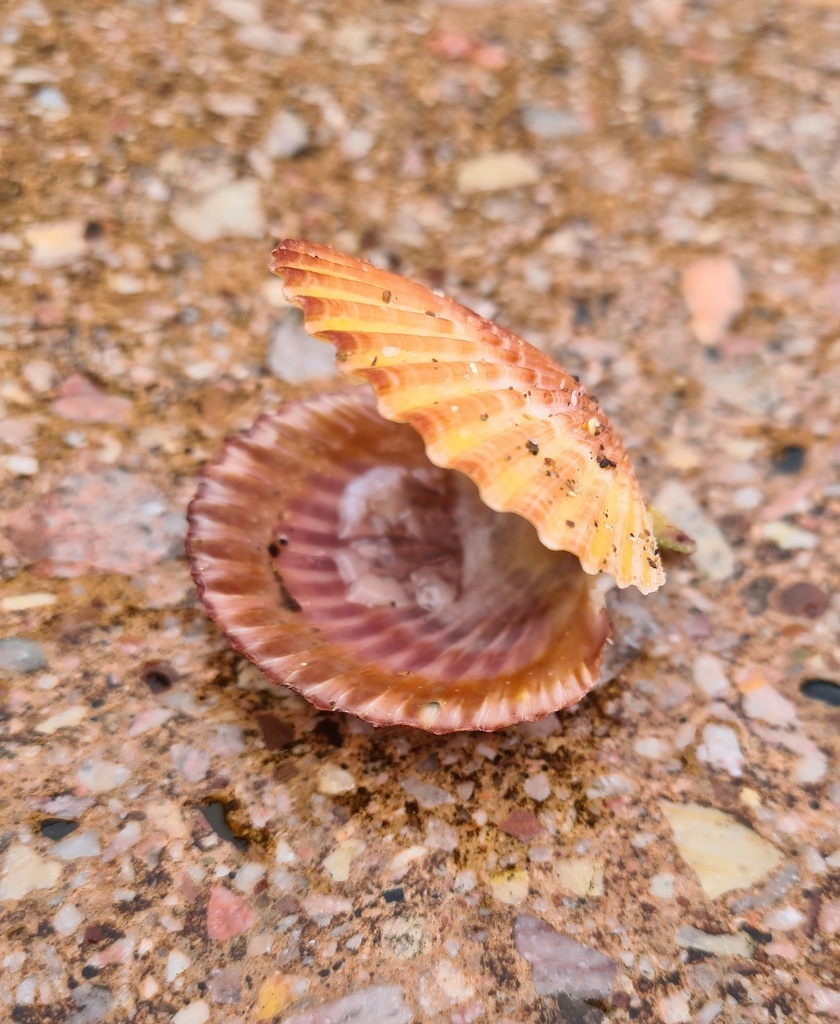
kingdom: Animalia
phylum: Mollusca
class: Bivalvia
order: Pectinida
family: Pectinidae
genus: Aequipecten
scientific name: Aequipecten opercularis
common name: Queen scallop
